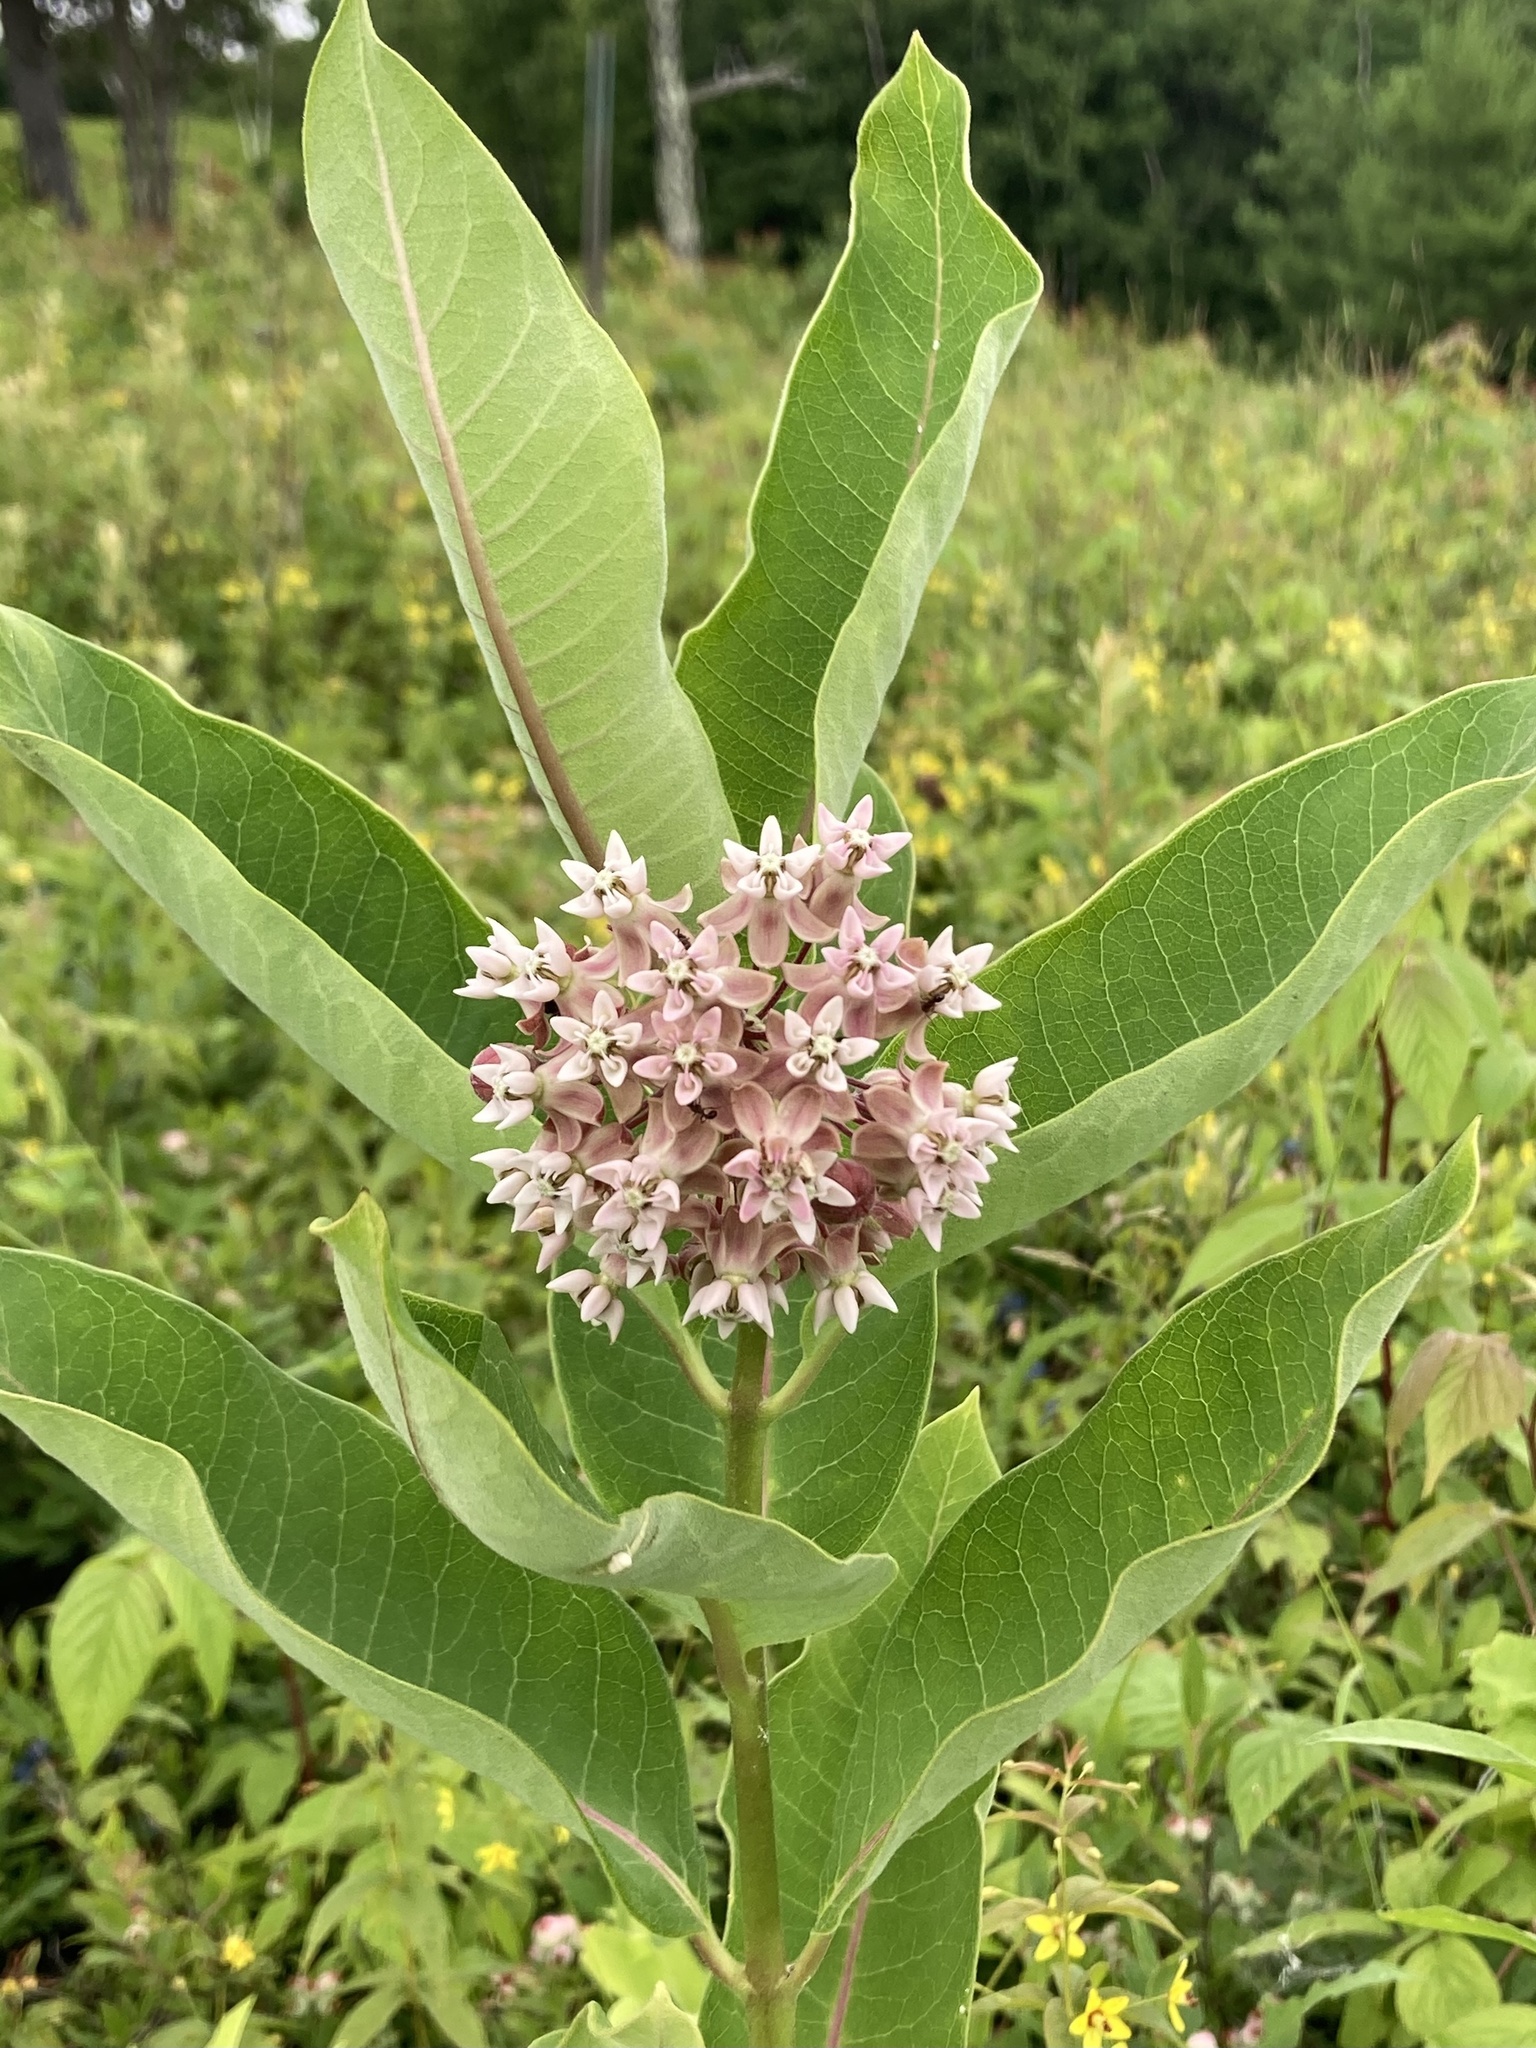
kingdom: Plantae
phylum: Tracheophyta
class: Magnoliopsida
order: Gentianales
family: Apocynaceae
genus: Asclepias
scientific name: Asclepias syriaca
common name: Common milkweed
